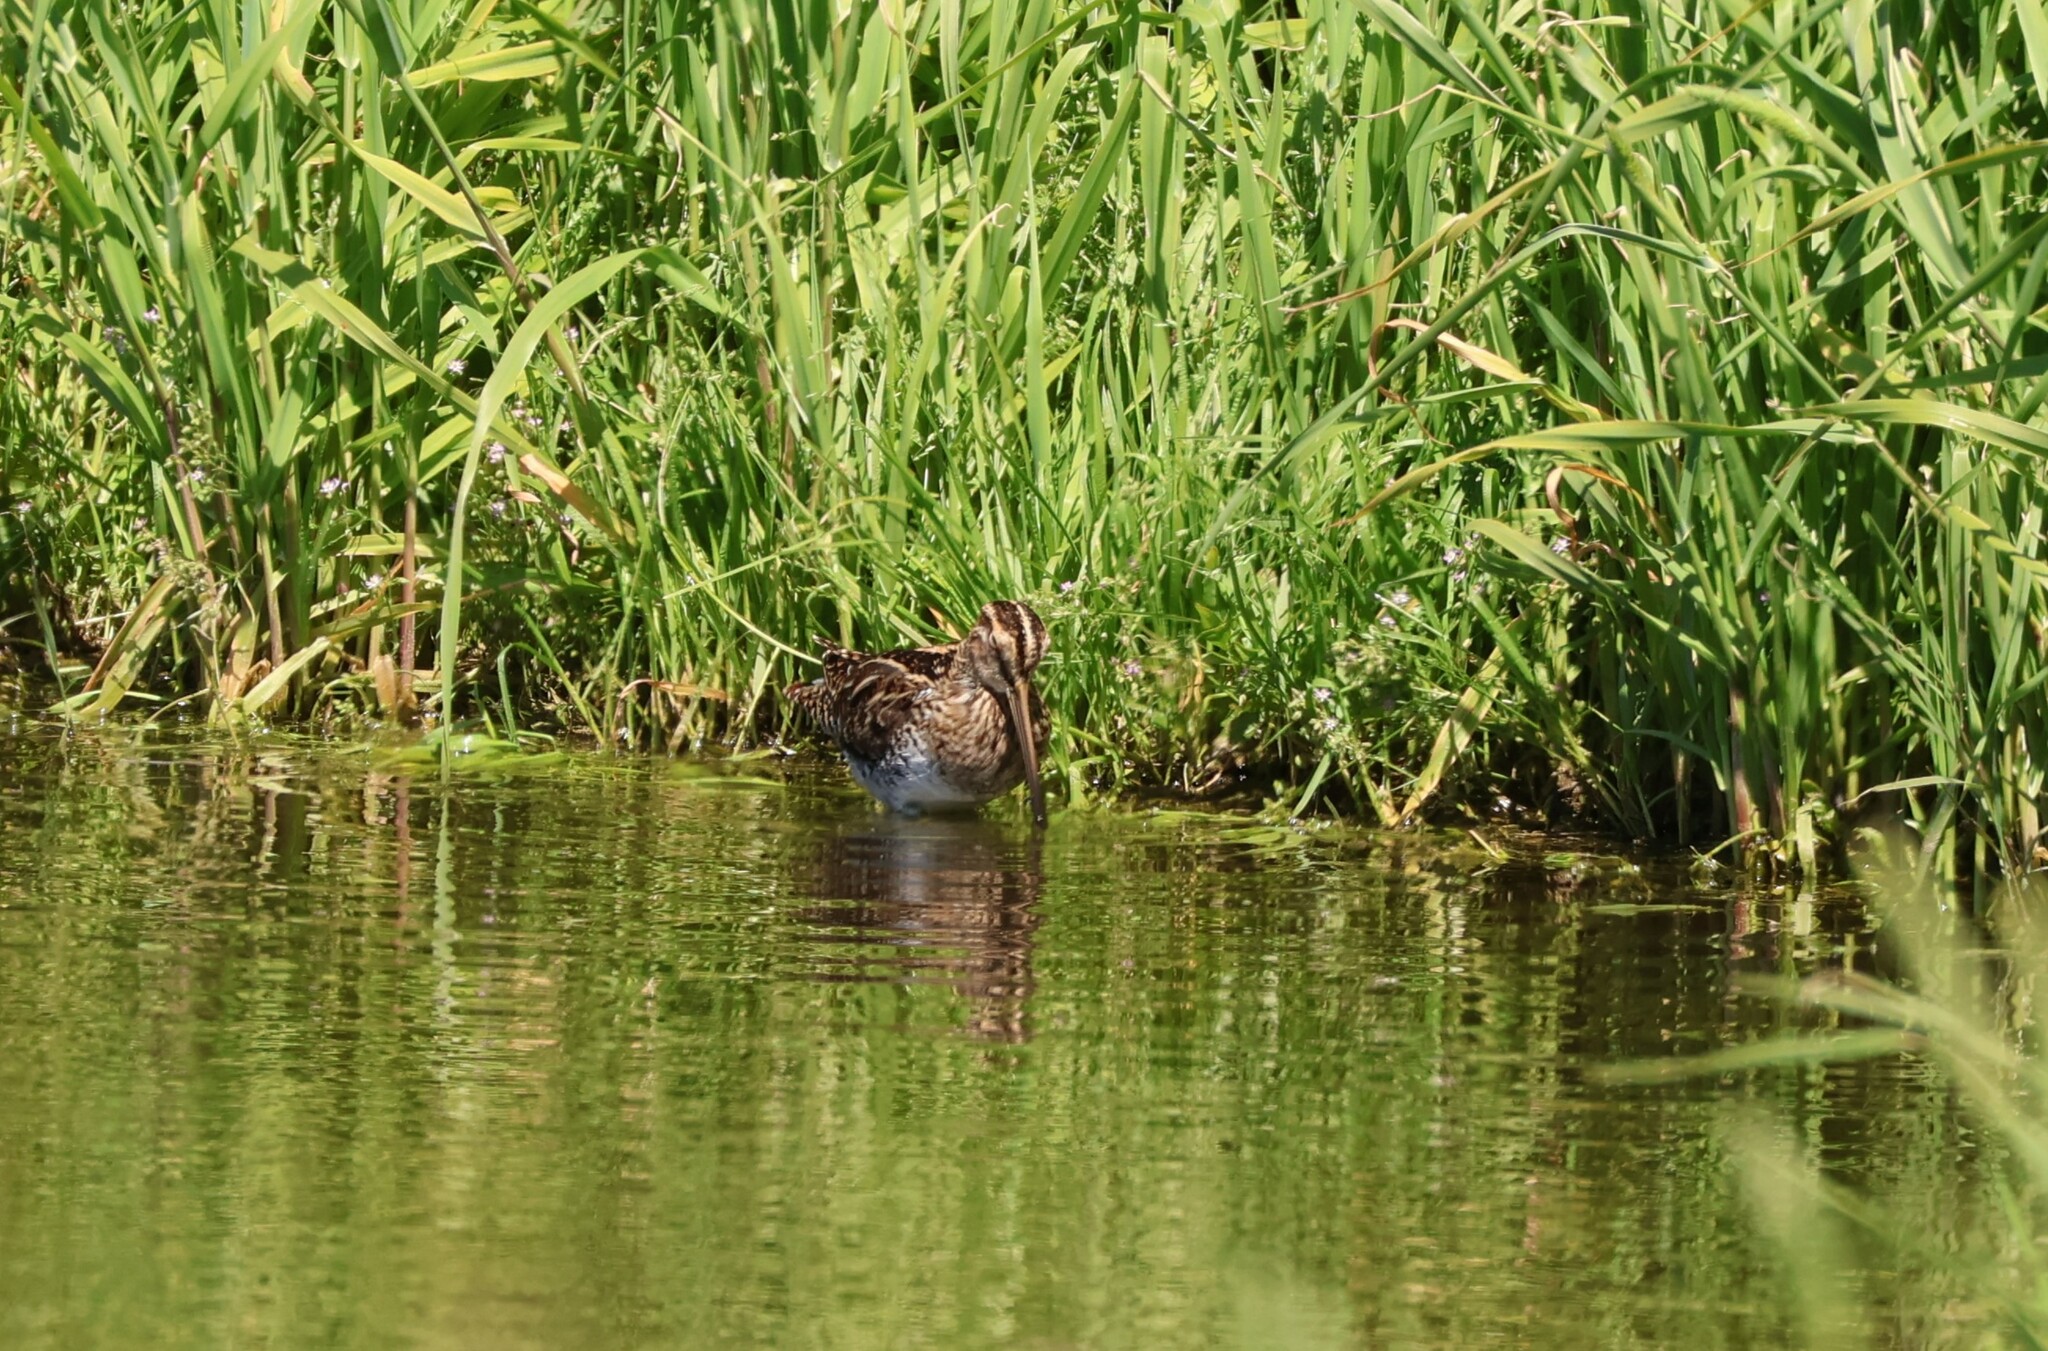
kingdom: Animalia
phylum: Chordata
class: Aves
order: Charadriiformes
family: Scolopacidae
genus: Gallinago
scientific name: Gallinago delicata
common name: Wilson's snipe
